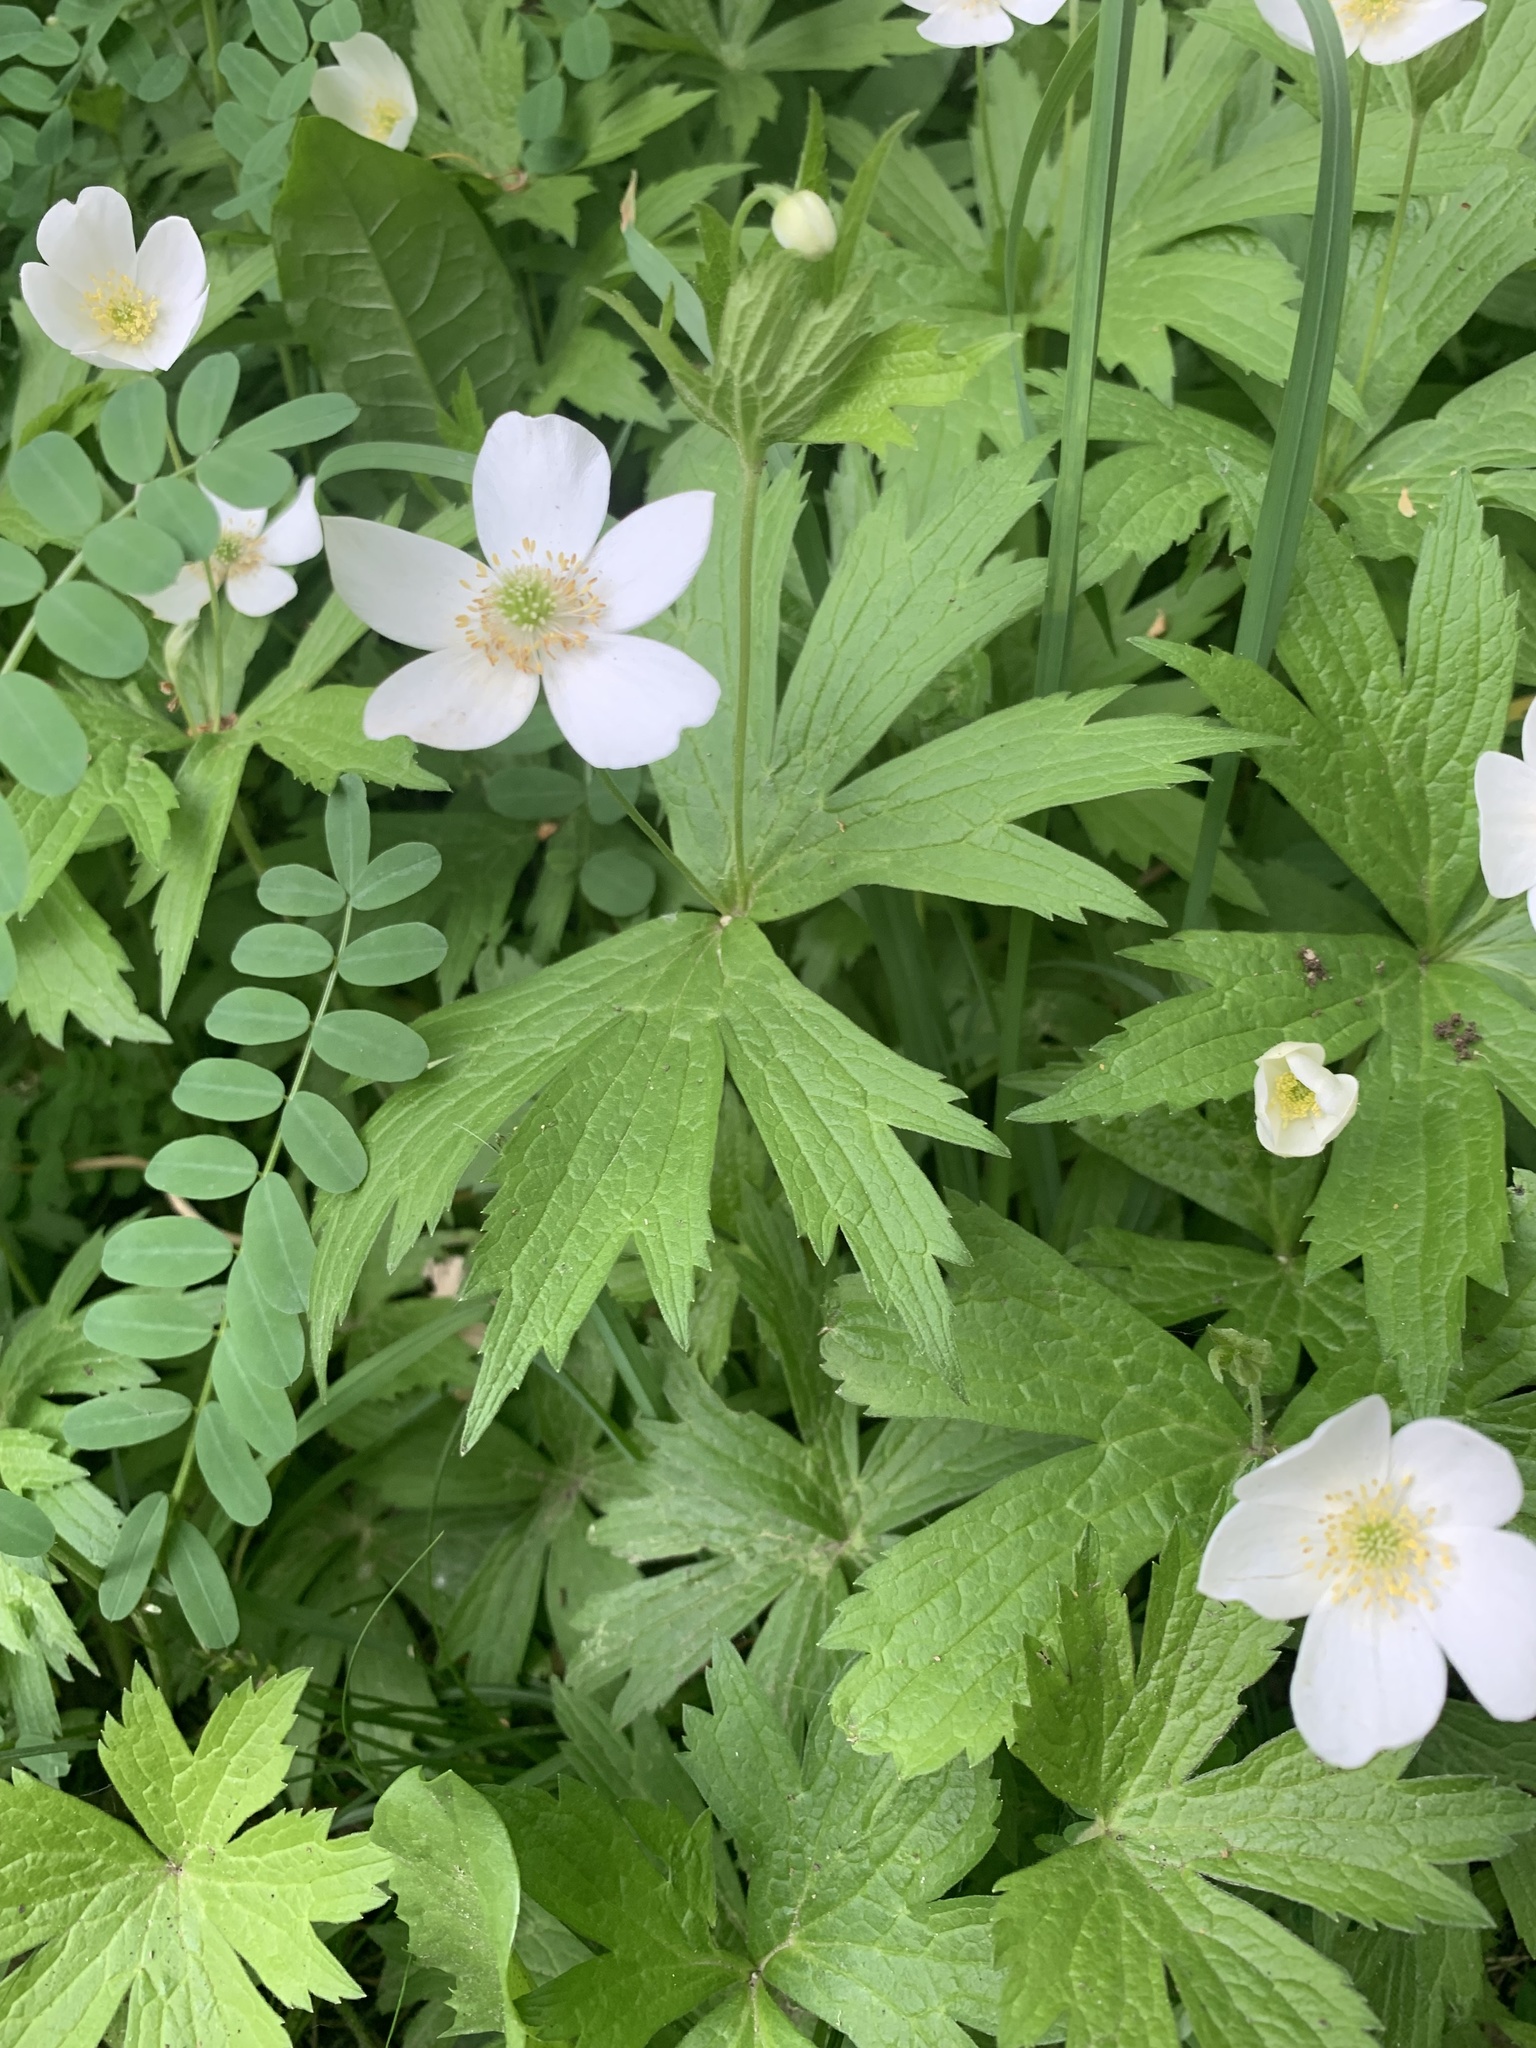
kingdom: Plantae
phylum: Tracheophyta
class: Magnoliopsida
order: Ranunculales
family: Ranunculaceae
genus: Anemonastrum
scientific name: Anemonastrum canadense
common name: Canada anemone
